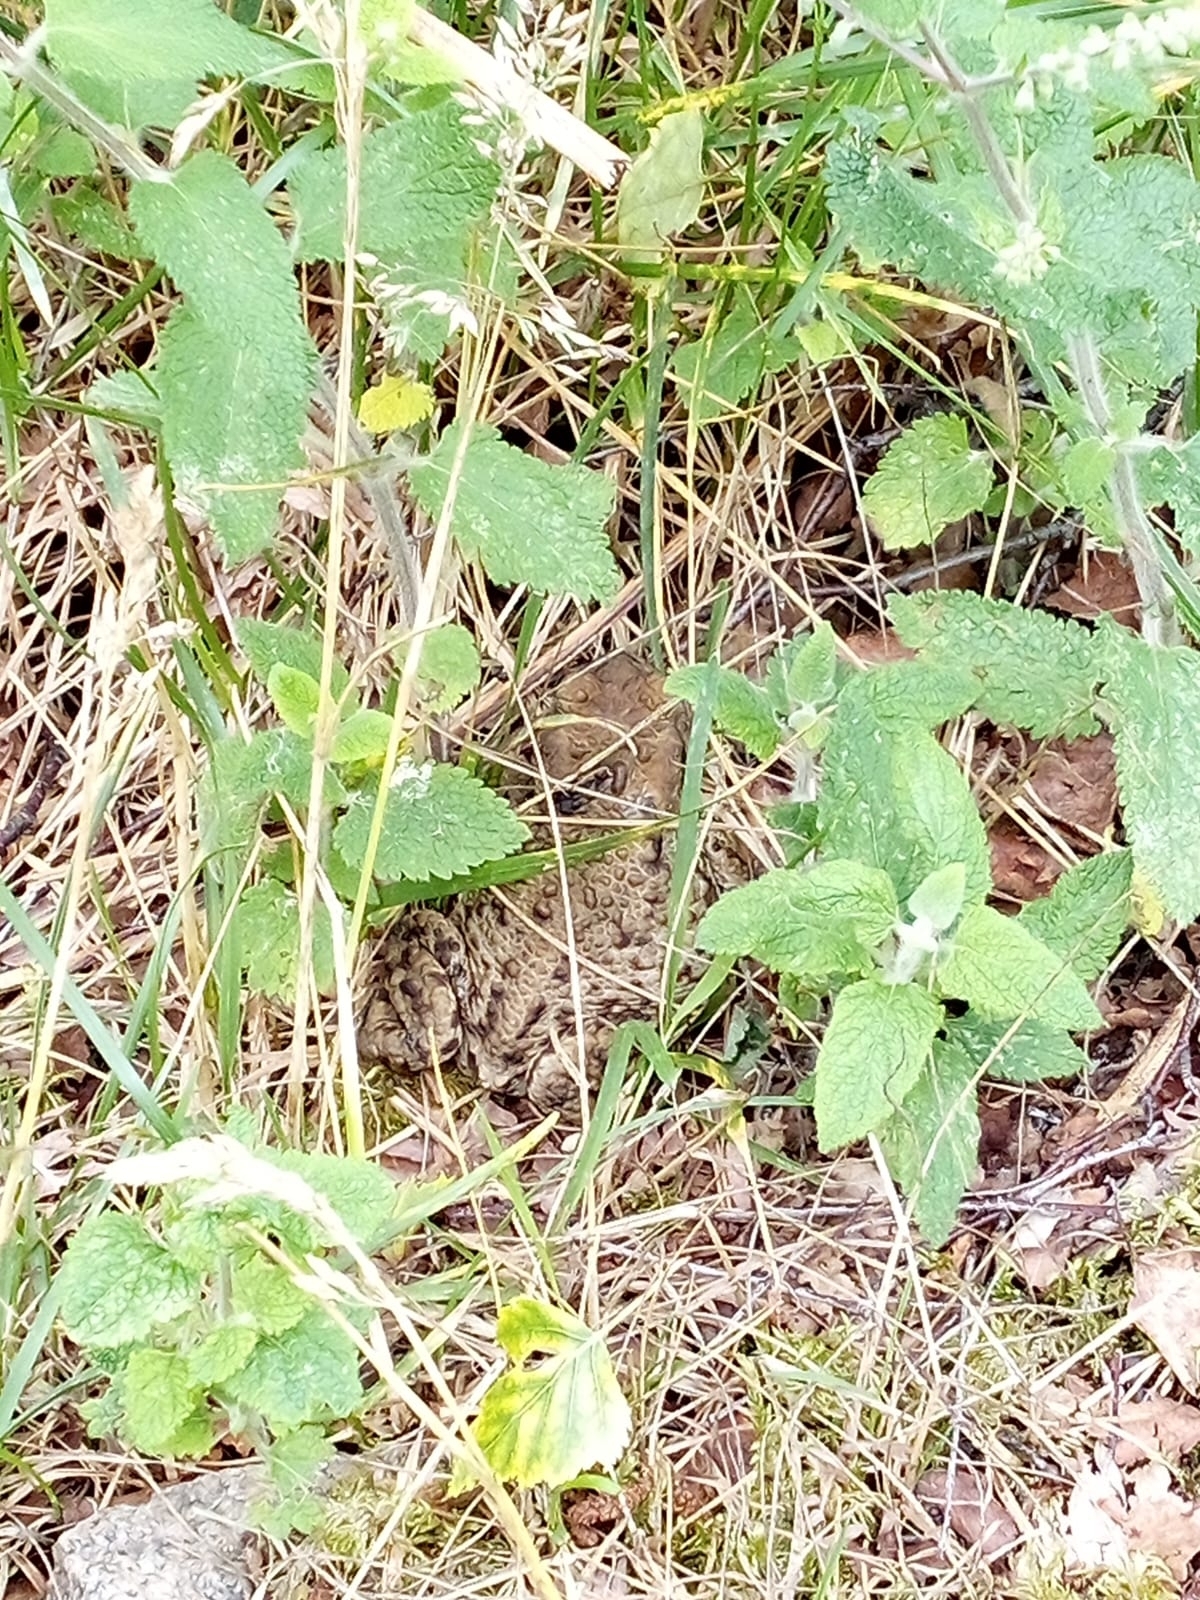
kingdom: Animalia
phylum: Chordata
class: Amphibia
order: Anura
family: Bufonidae
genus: Bufo
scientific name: Bufo bufo
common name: Common toad
